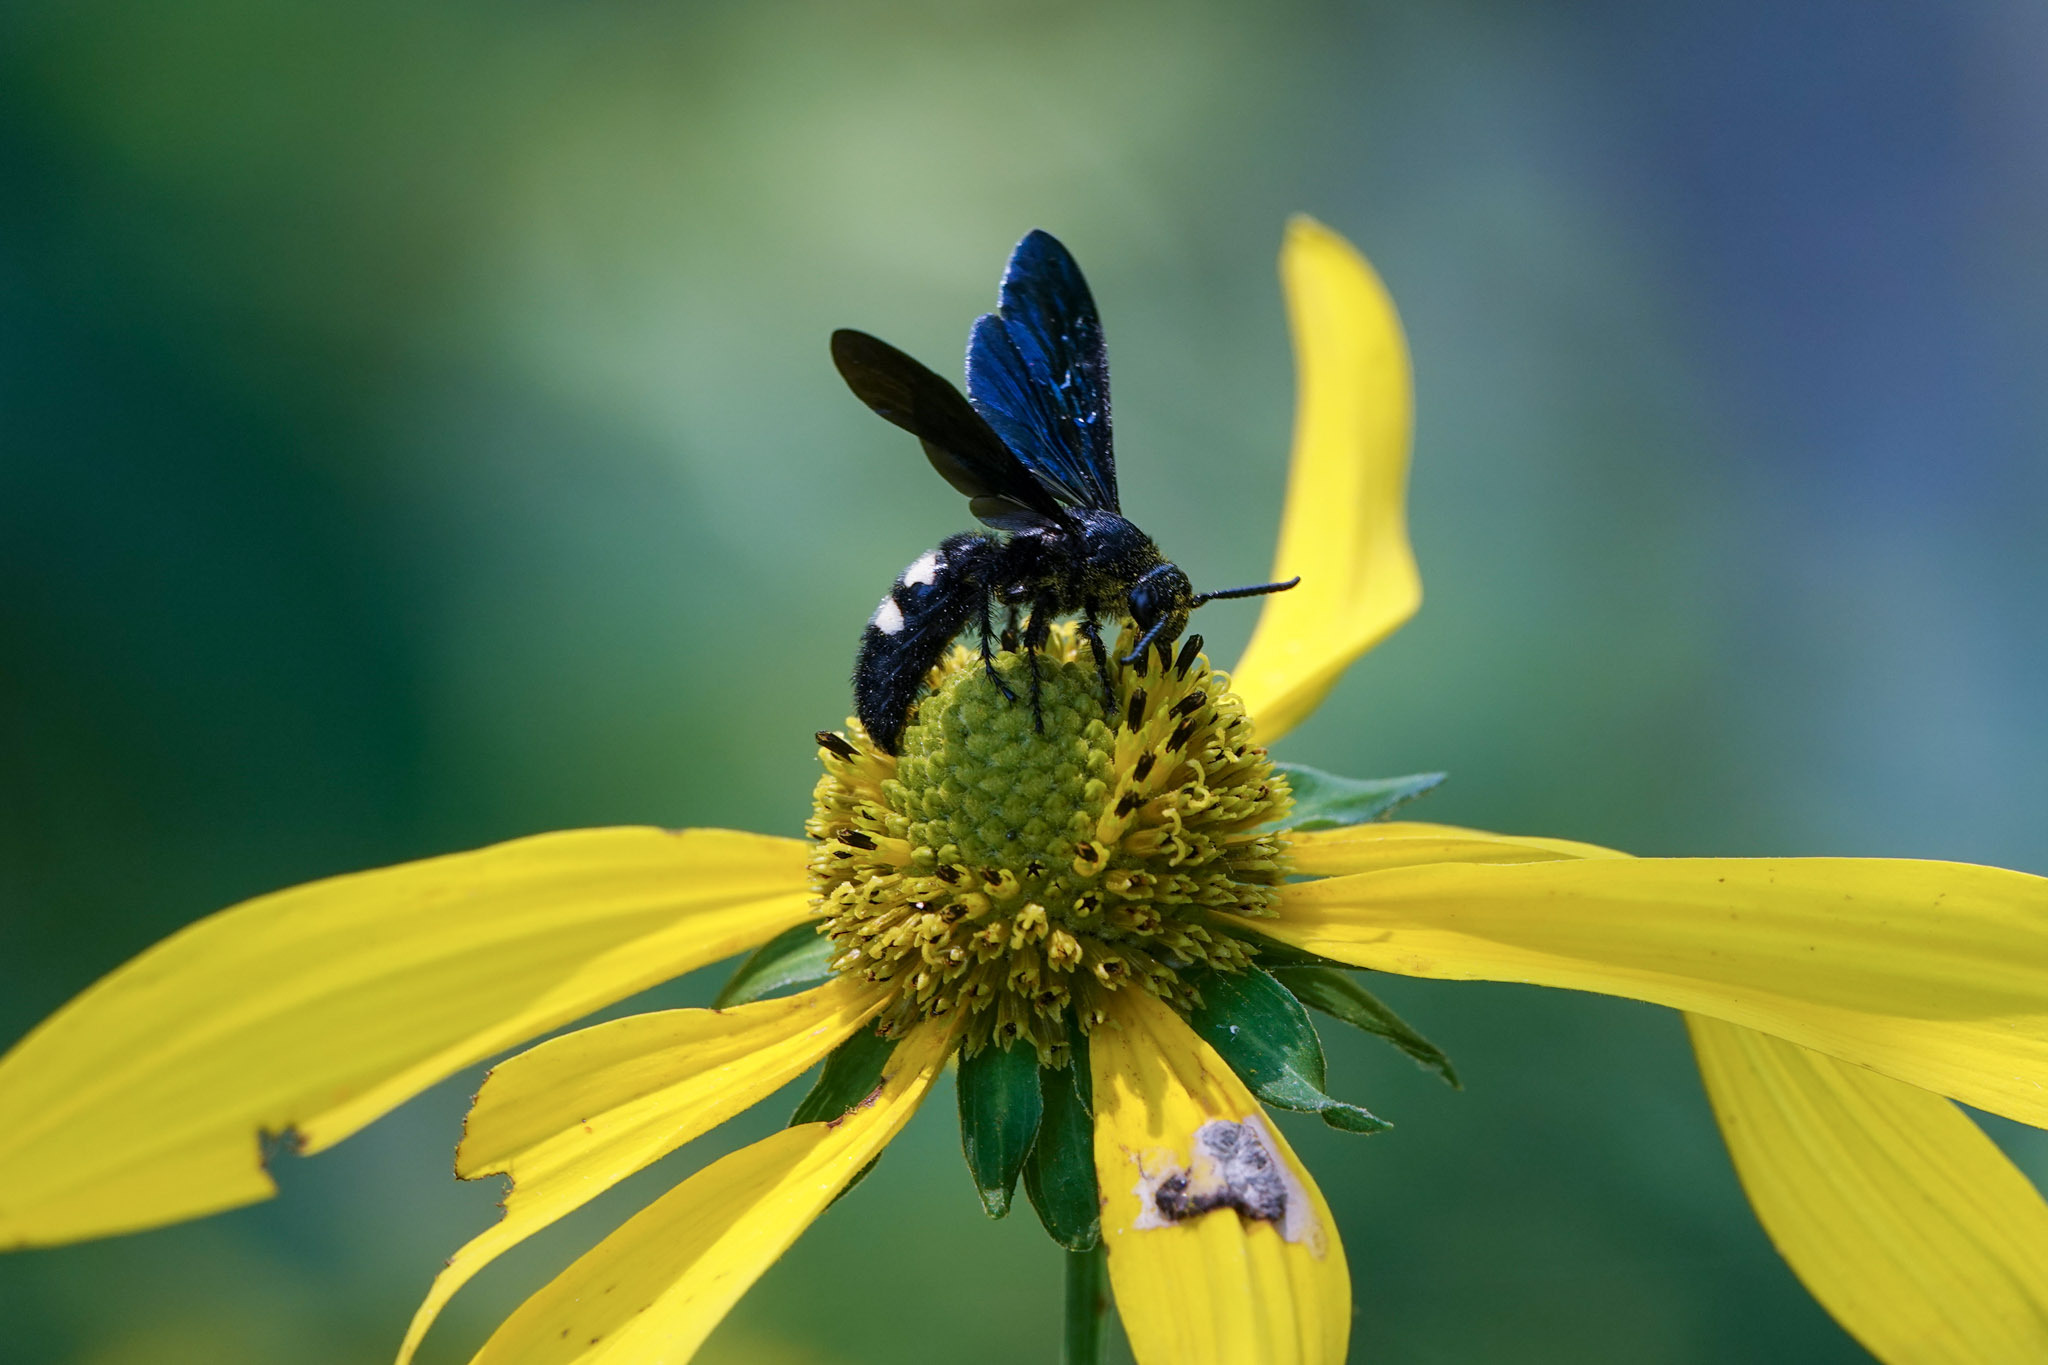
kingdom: Animalia
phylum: Arthropoda
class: Insecta
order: Hymenoptera
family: Scoliidae
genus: Scolia
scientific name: Scolia bicincta
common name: Double-banded scoliid wasp
